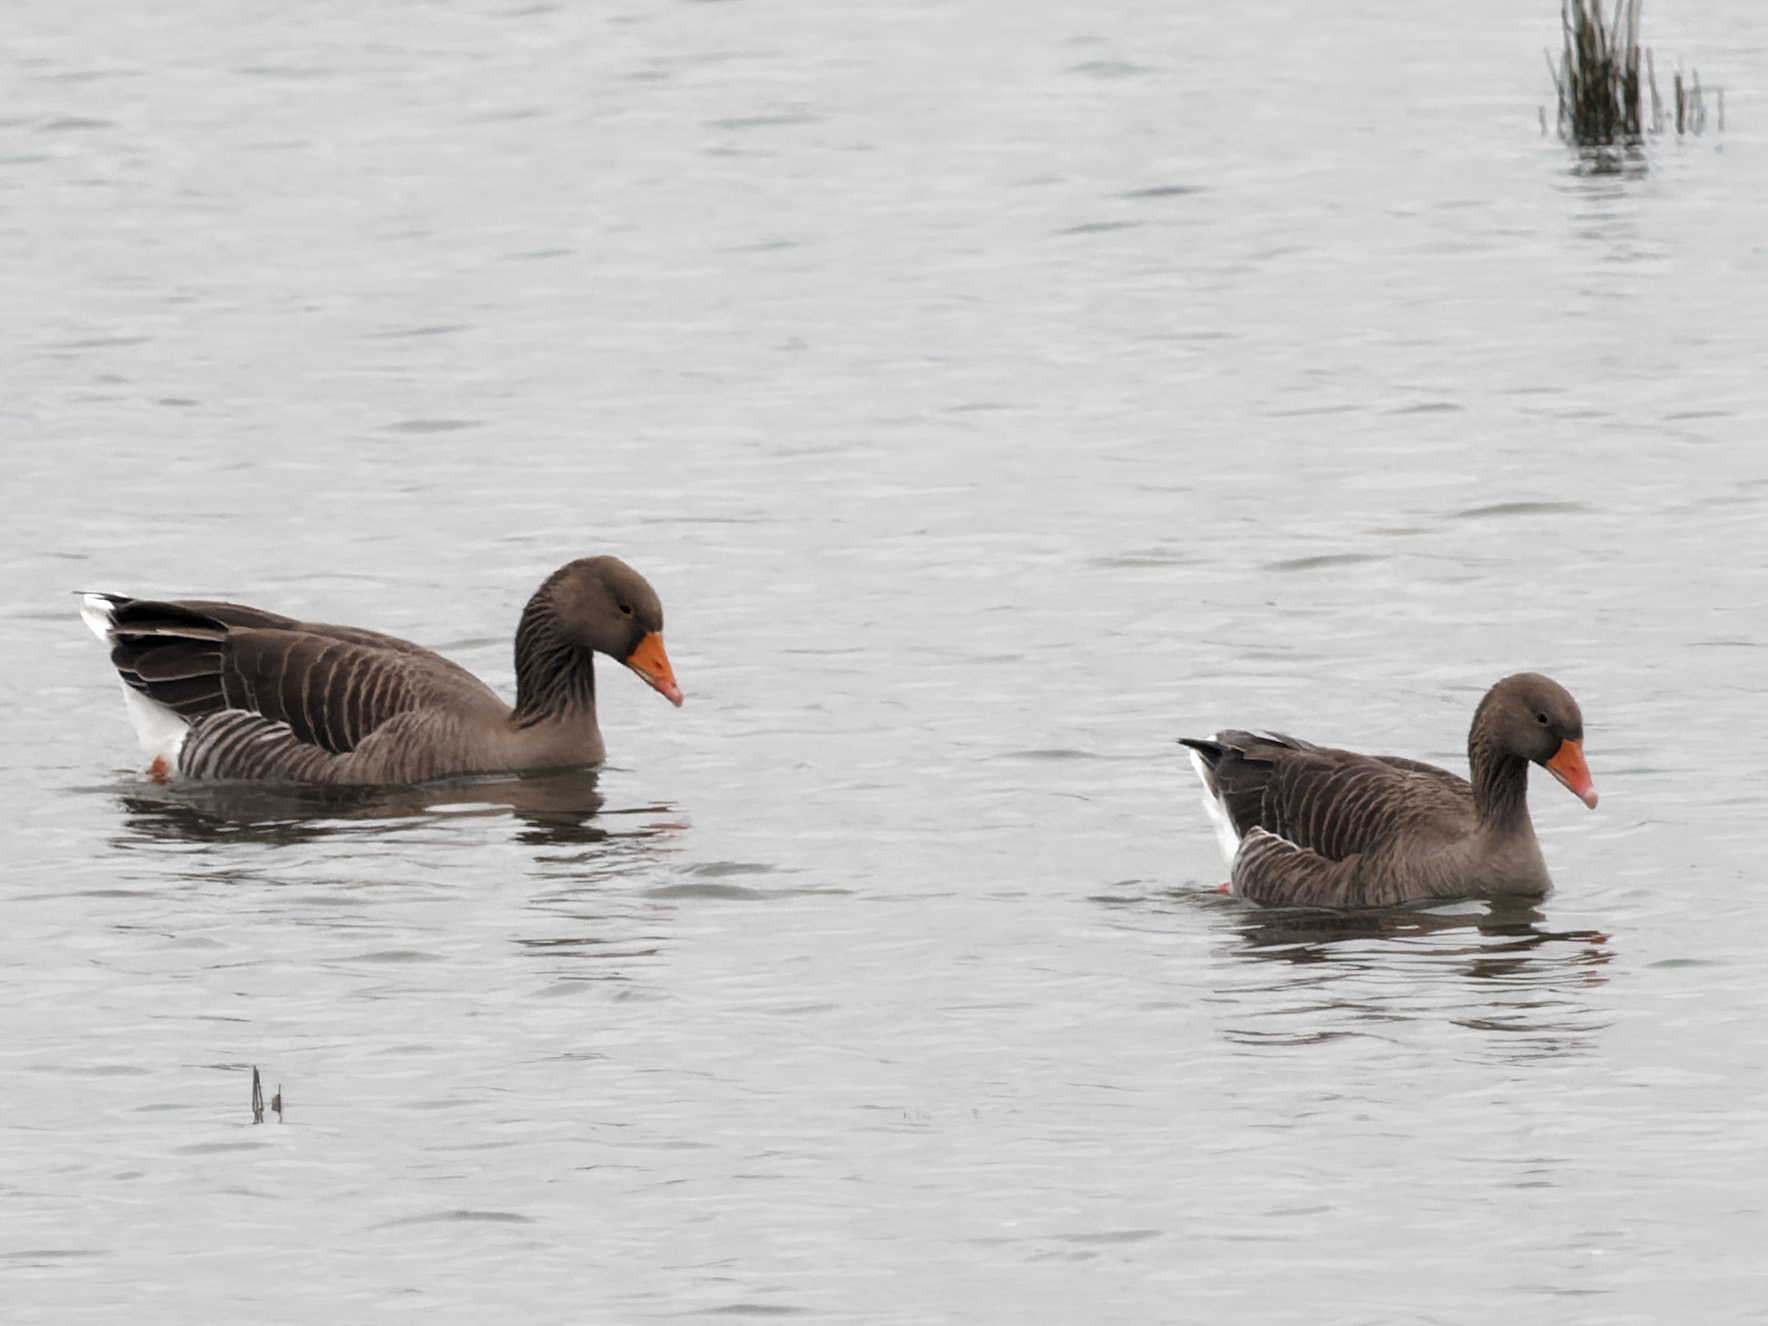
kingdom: Animalia
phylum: Chordata
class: Aves
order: Anseriformes
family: Anatidae
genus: Anser
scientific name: Anser anser
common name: Greylag goose
